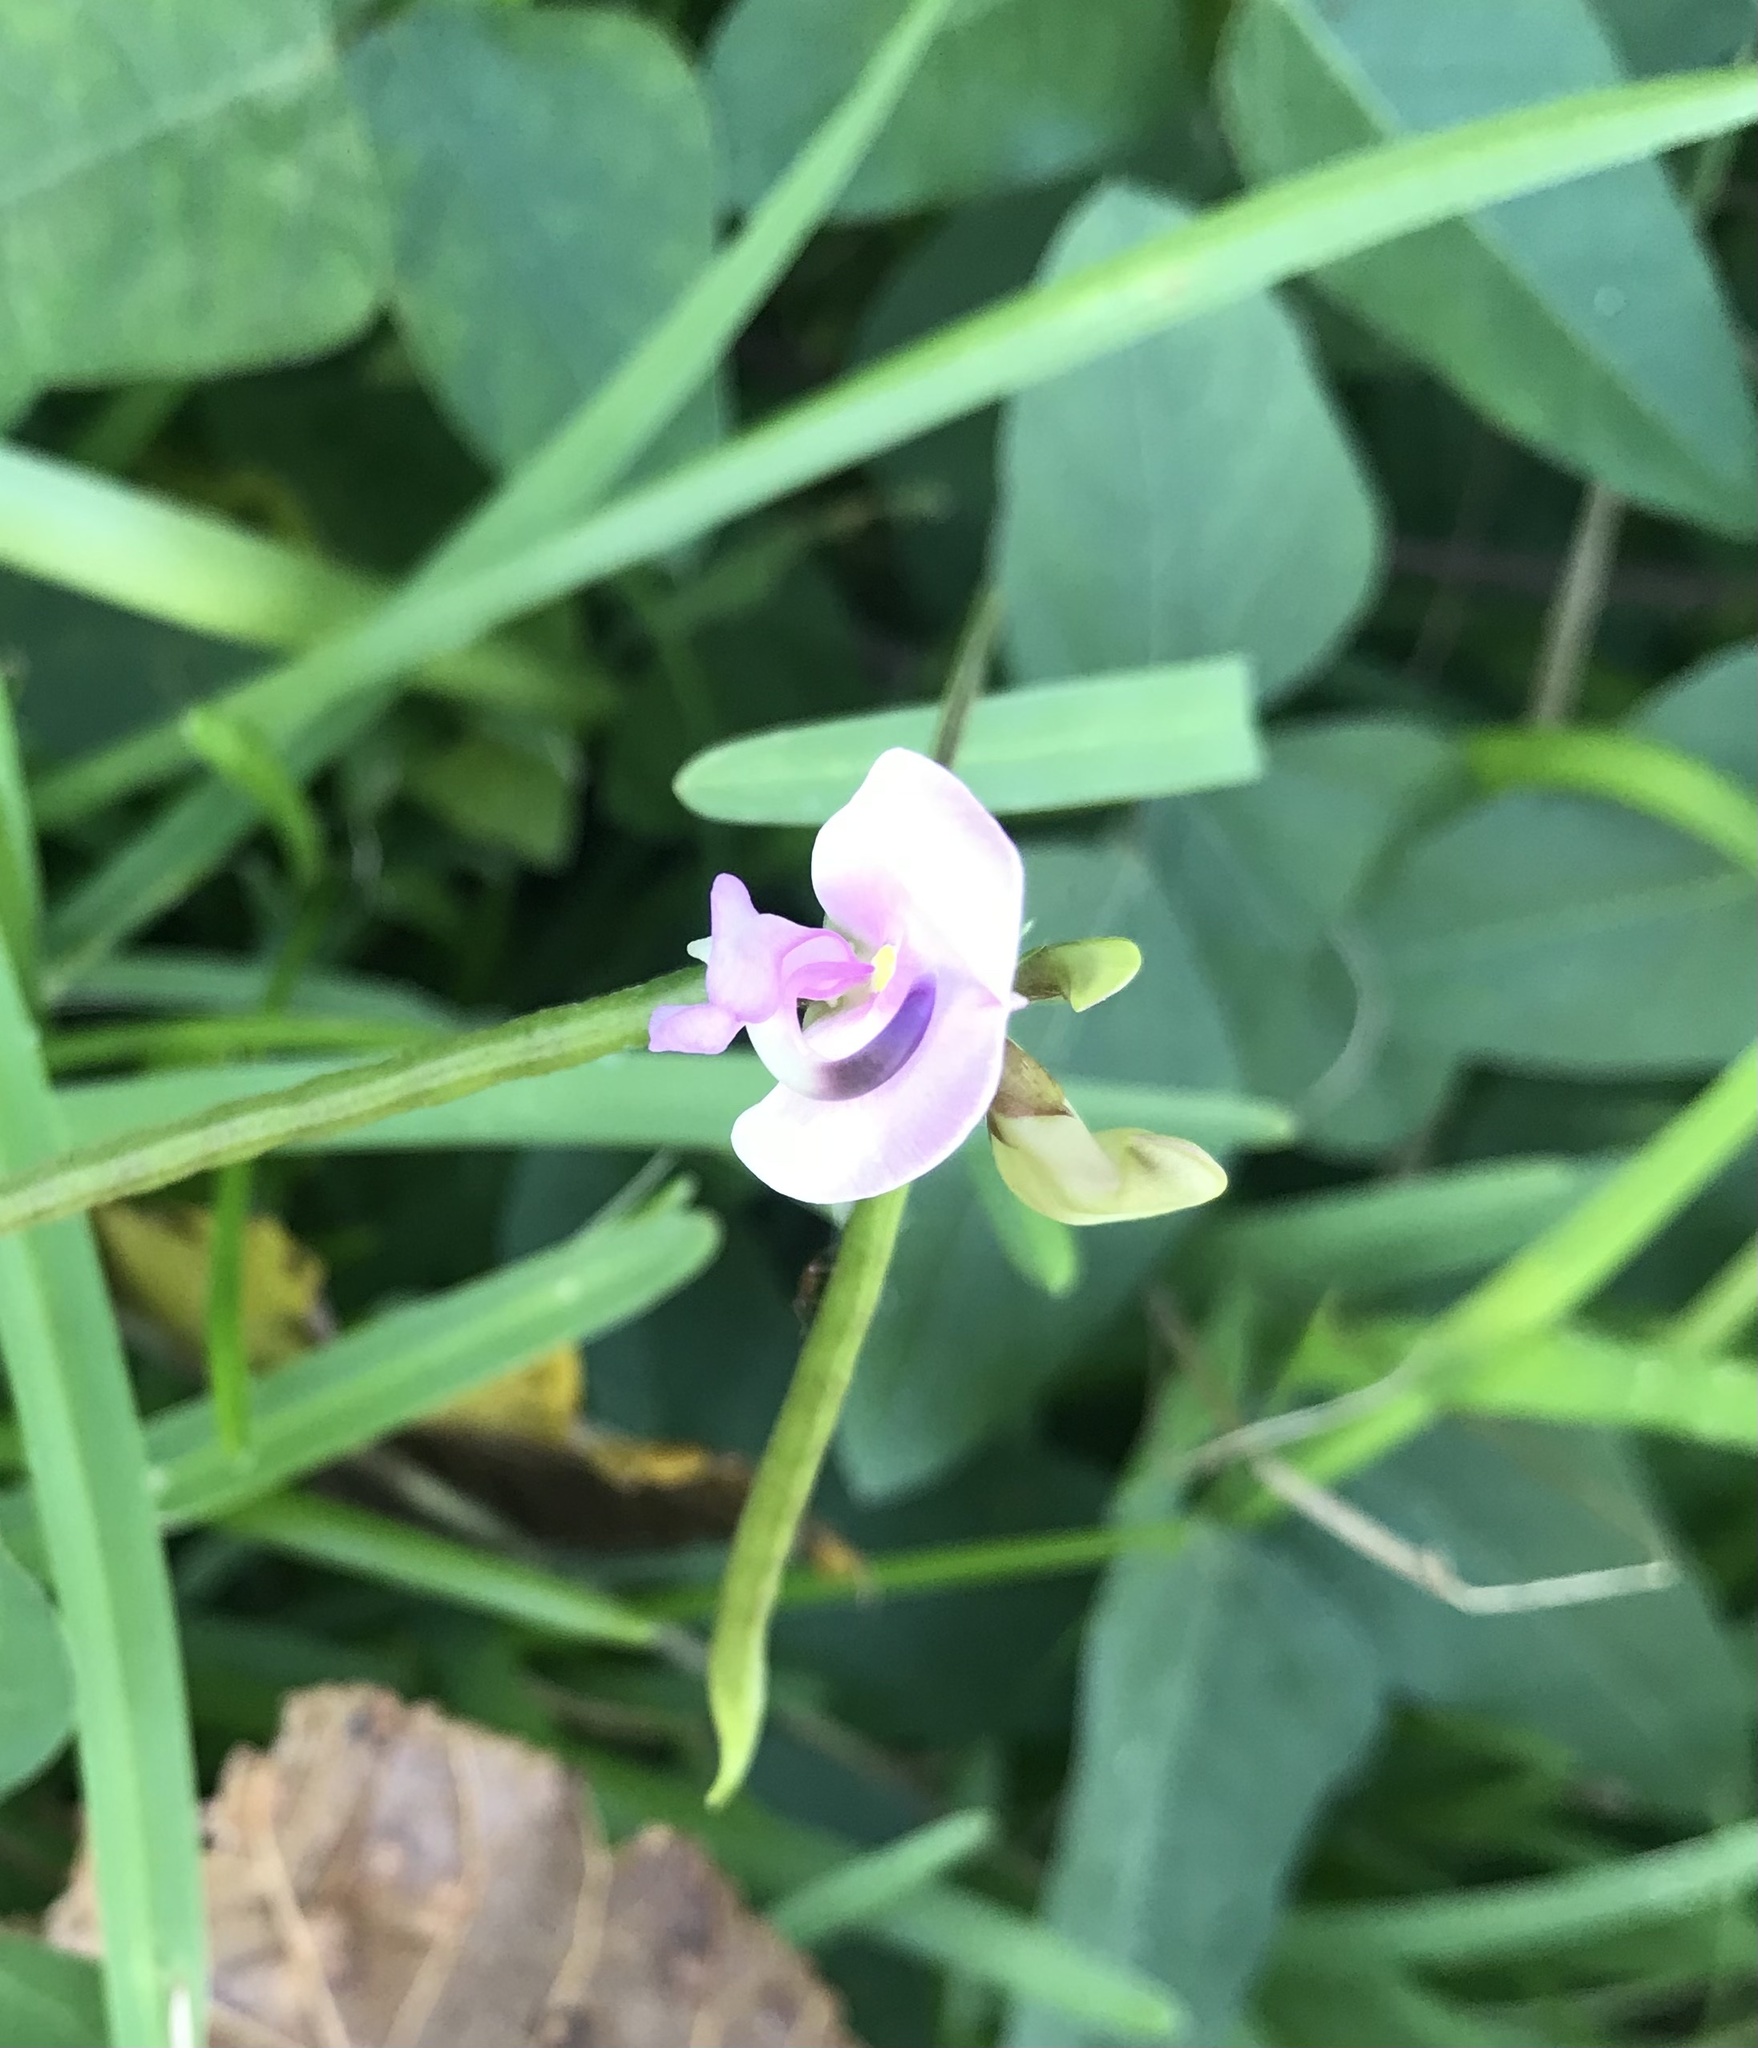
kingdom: Plantae
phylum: Tracheophyta
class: Magnoliopsida
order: Fabales
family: Fabaceae
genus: Strophostyles
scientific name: Strophostyles helvola
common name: Trailing wild bean
